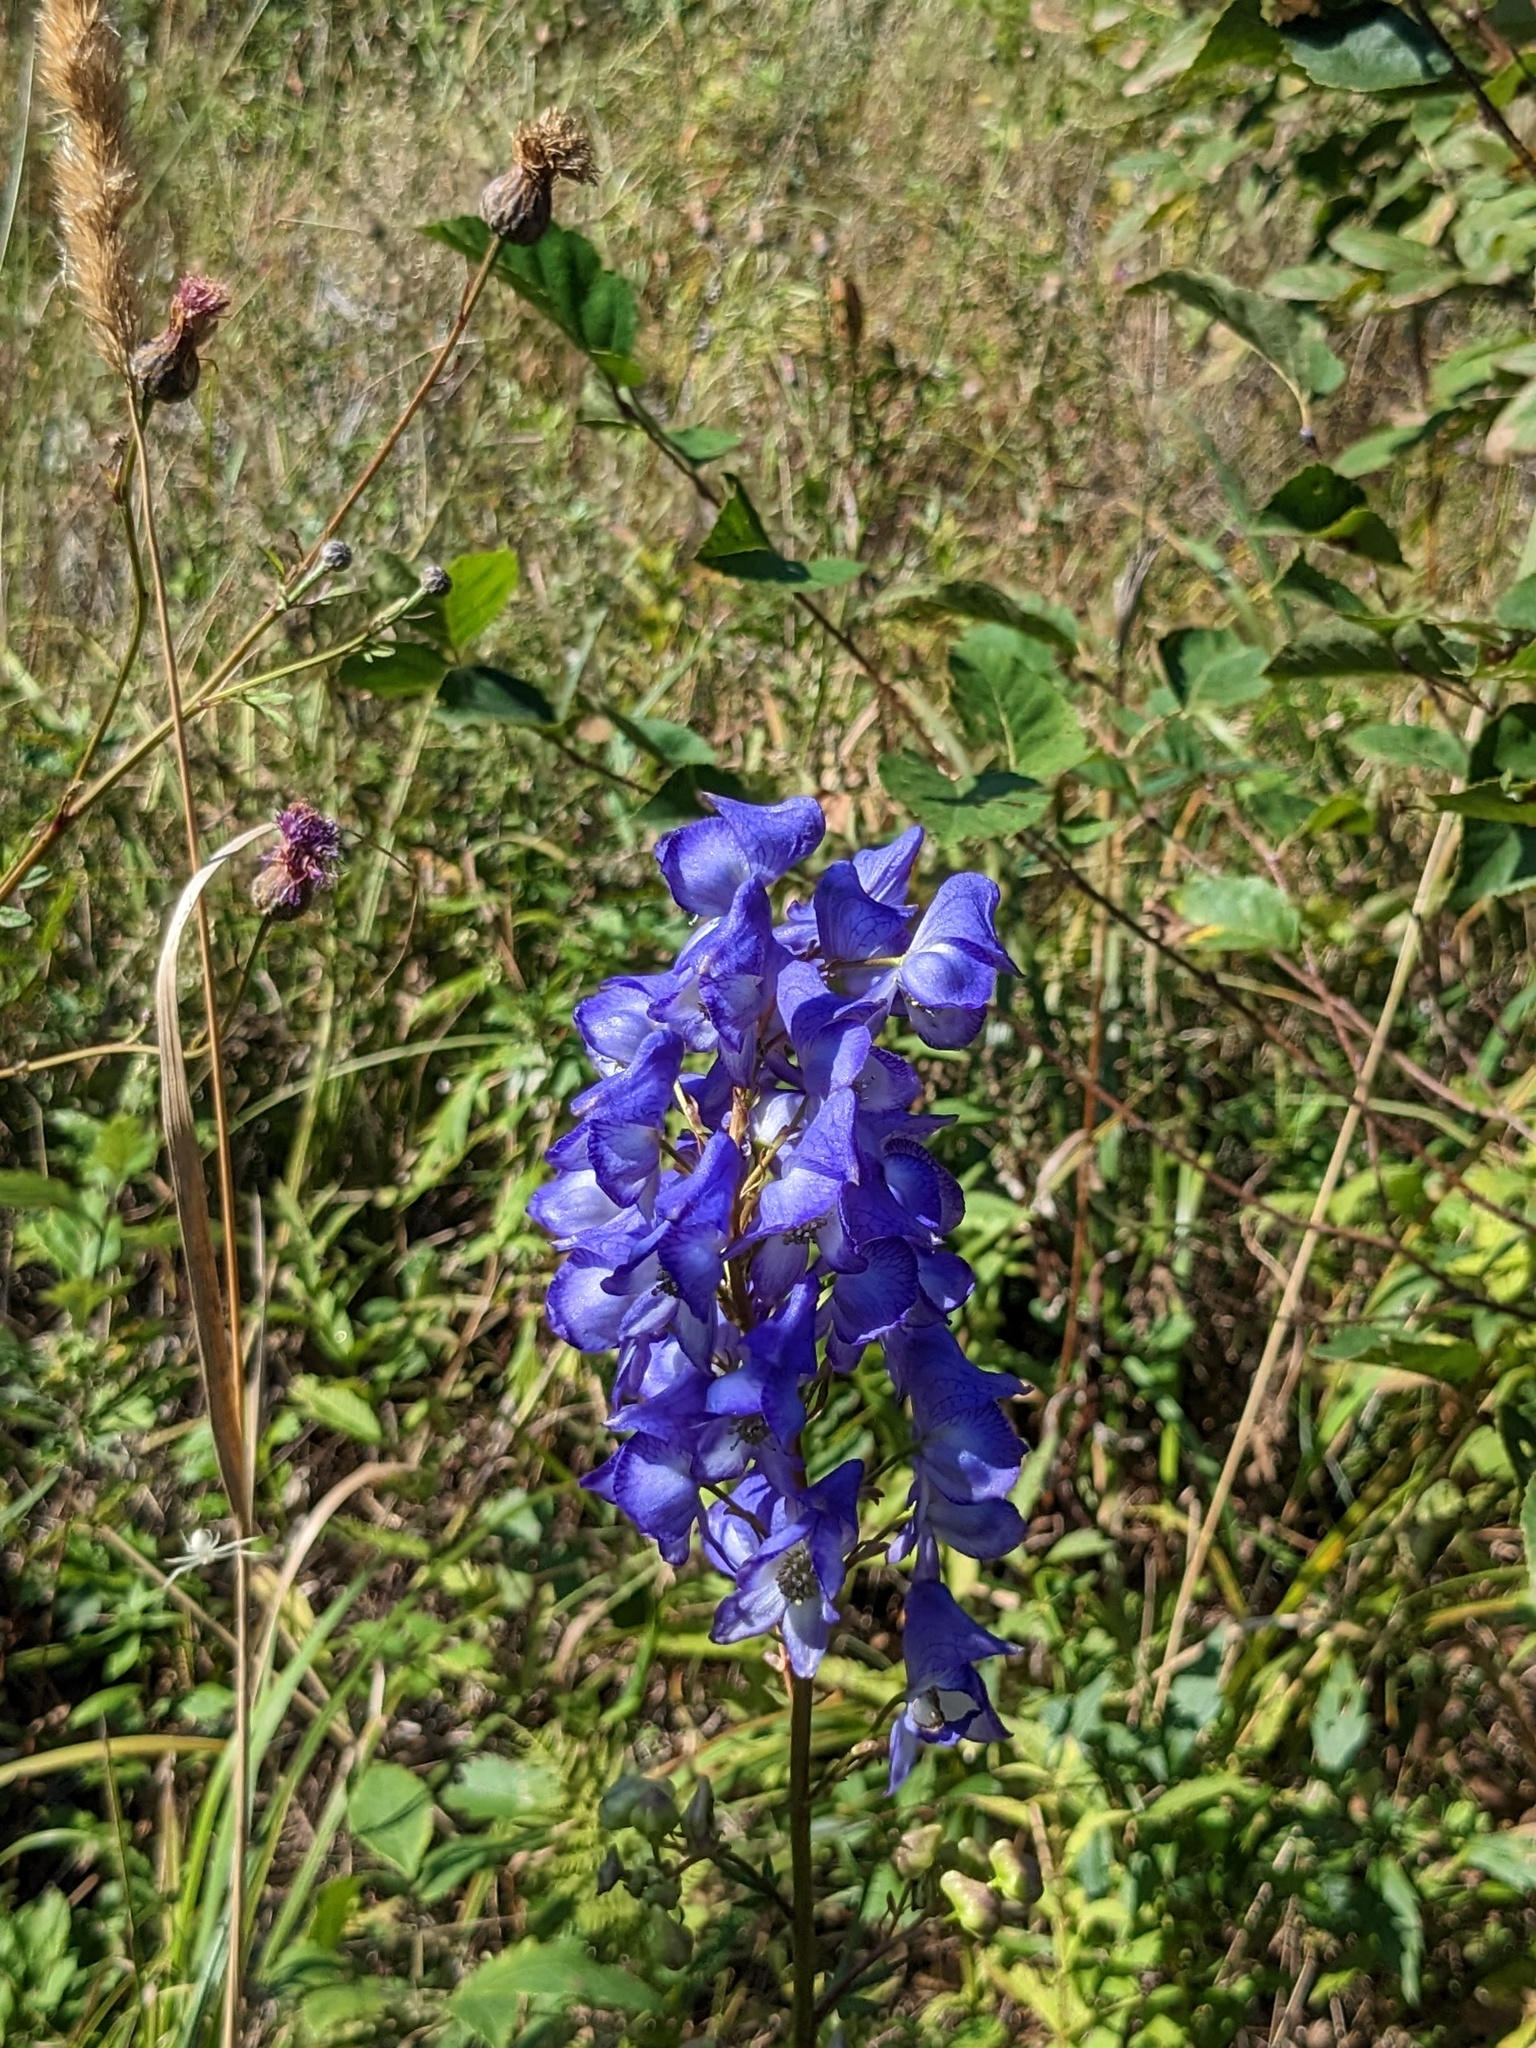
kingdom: Plantae
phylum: Tracheophyta
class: Magnoliopsida
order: Ranunculales
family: Ranunculaceae
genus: Aconitum
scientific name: Aconitum kusnezoffii
